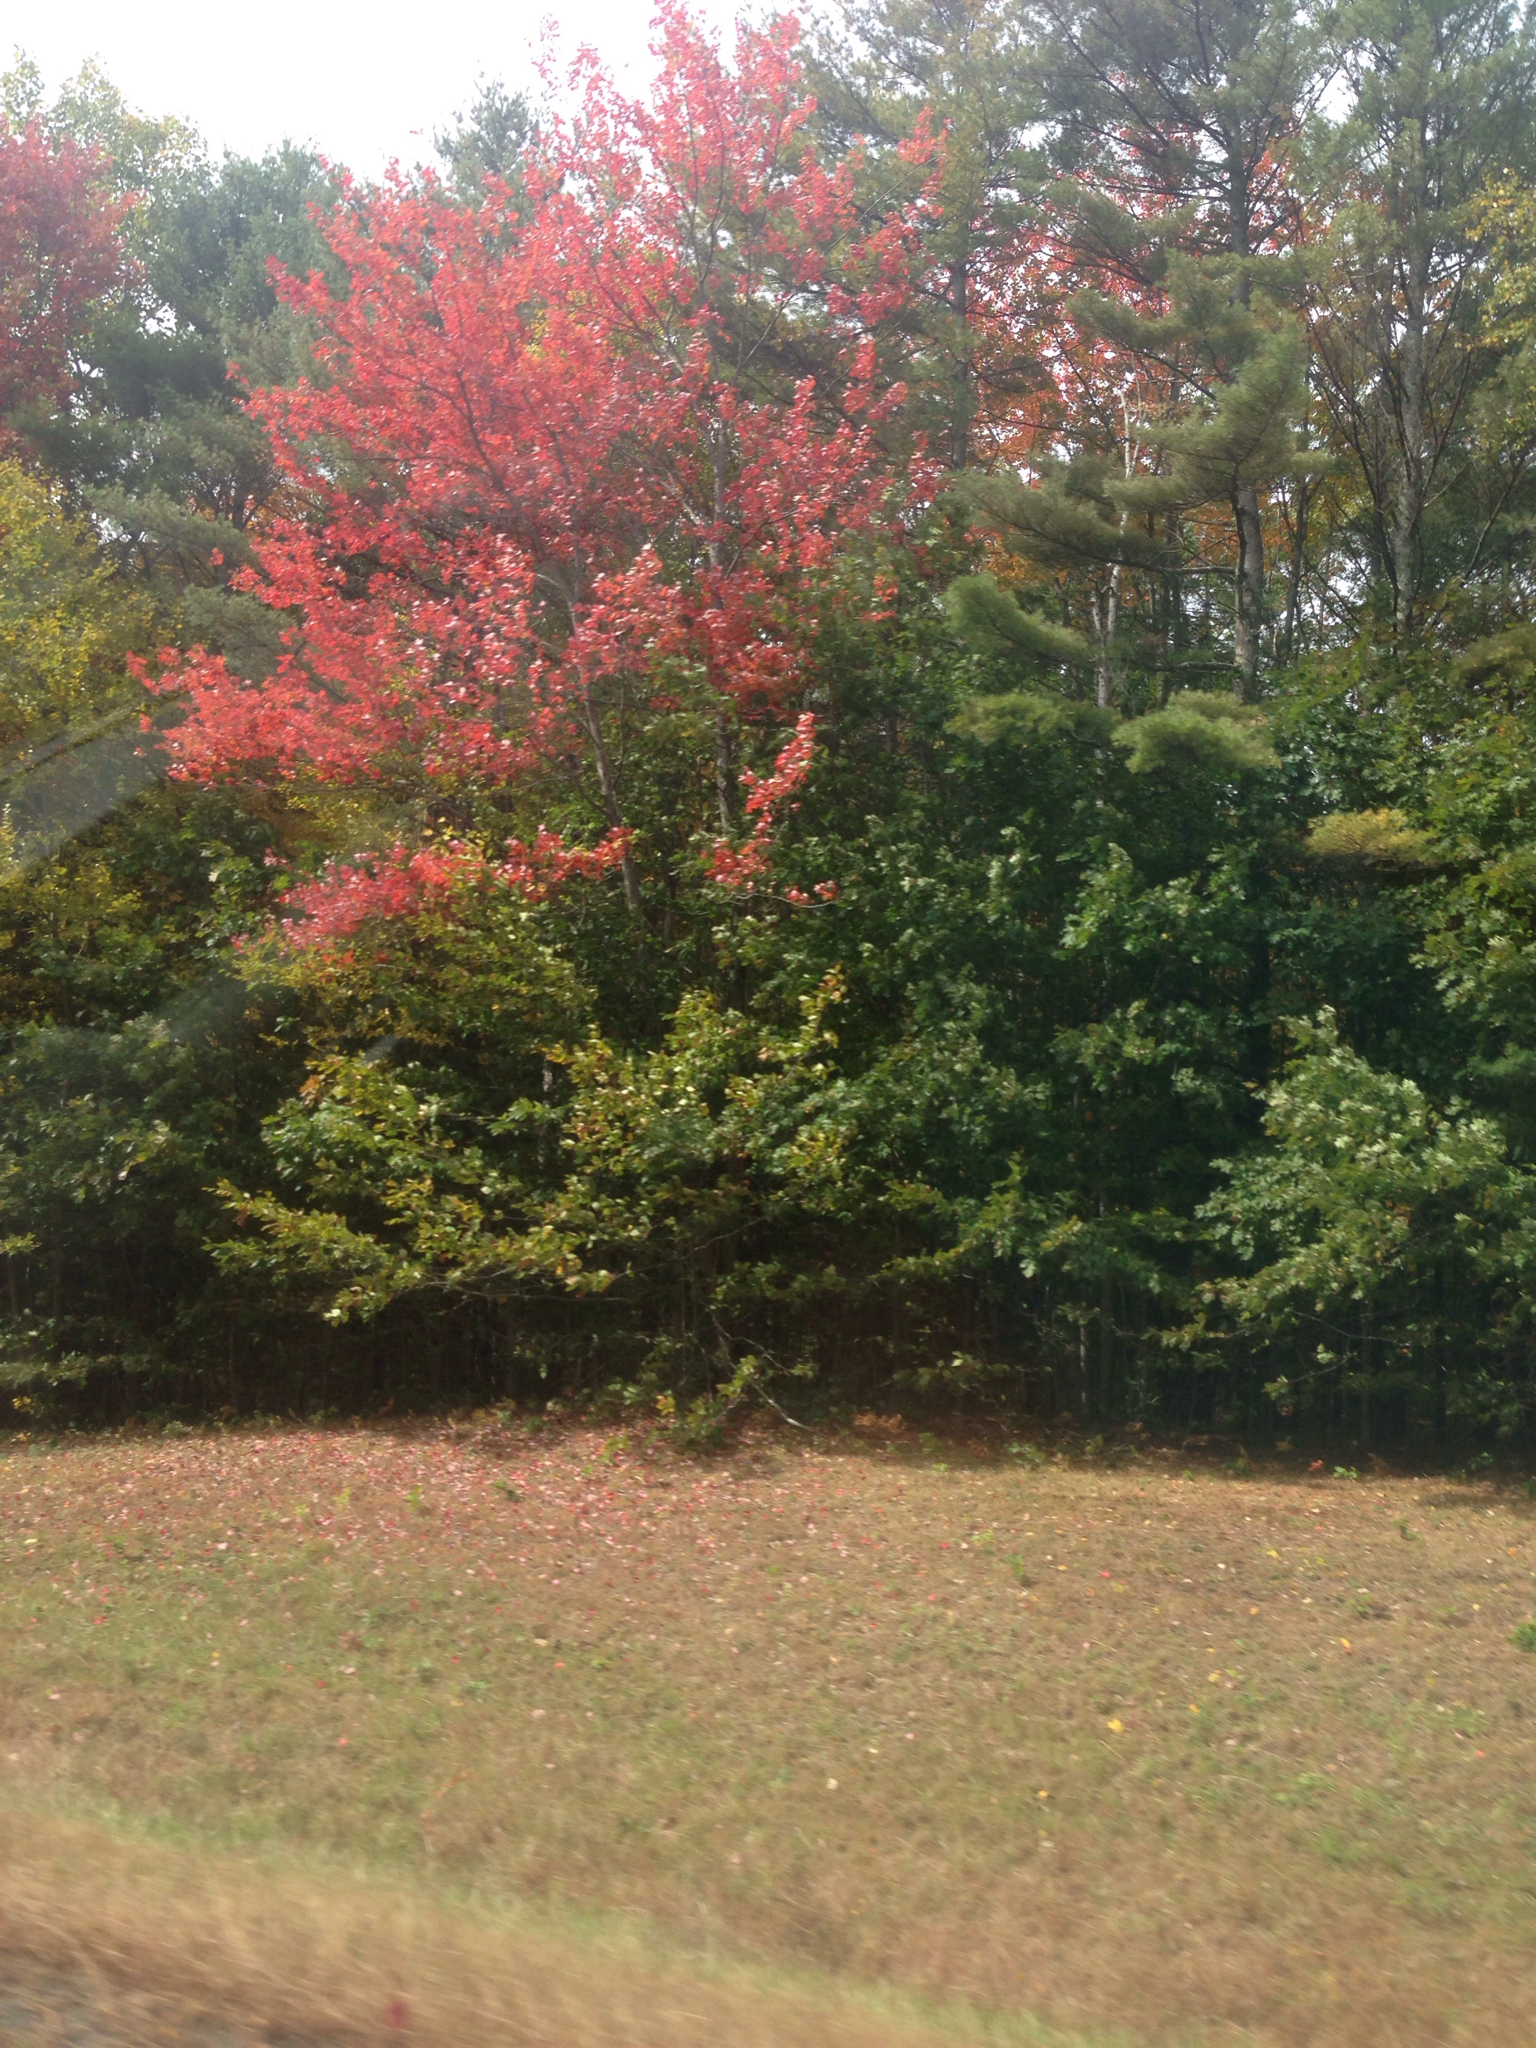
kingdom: Plantae
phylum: Tracheophyta
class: Magnoliopsida
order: Sapindales
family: Sapindaceae
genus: Acer
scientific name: Acer rubrum
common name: Red maple
